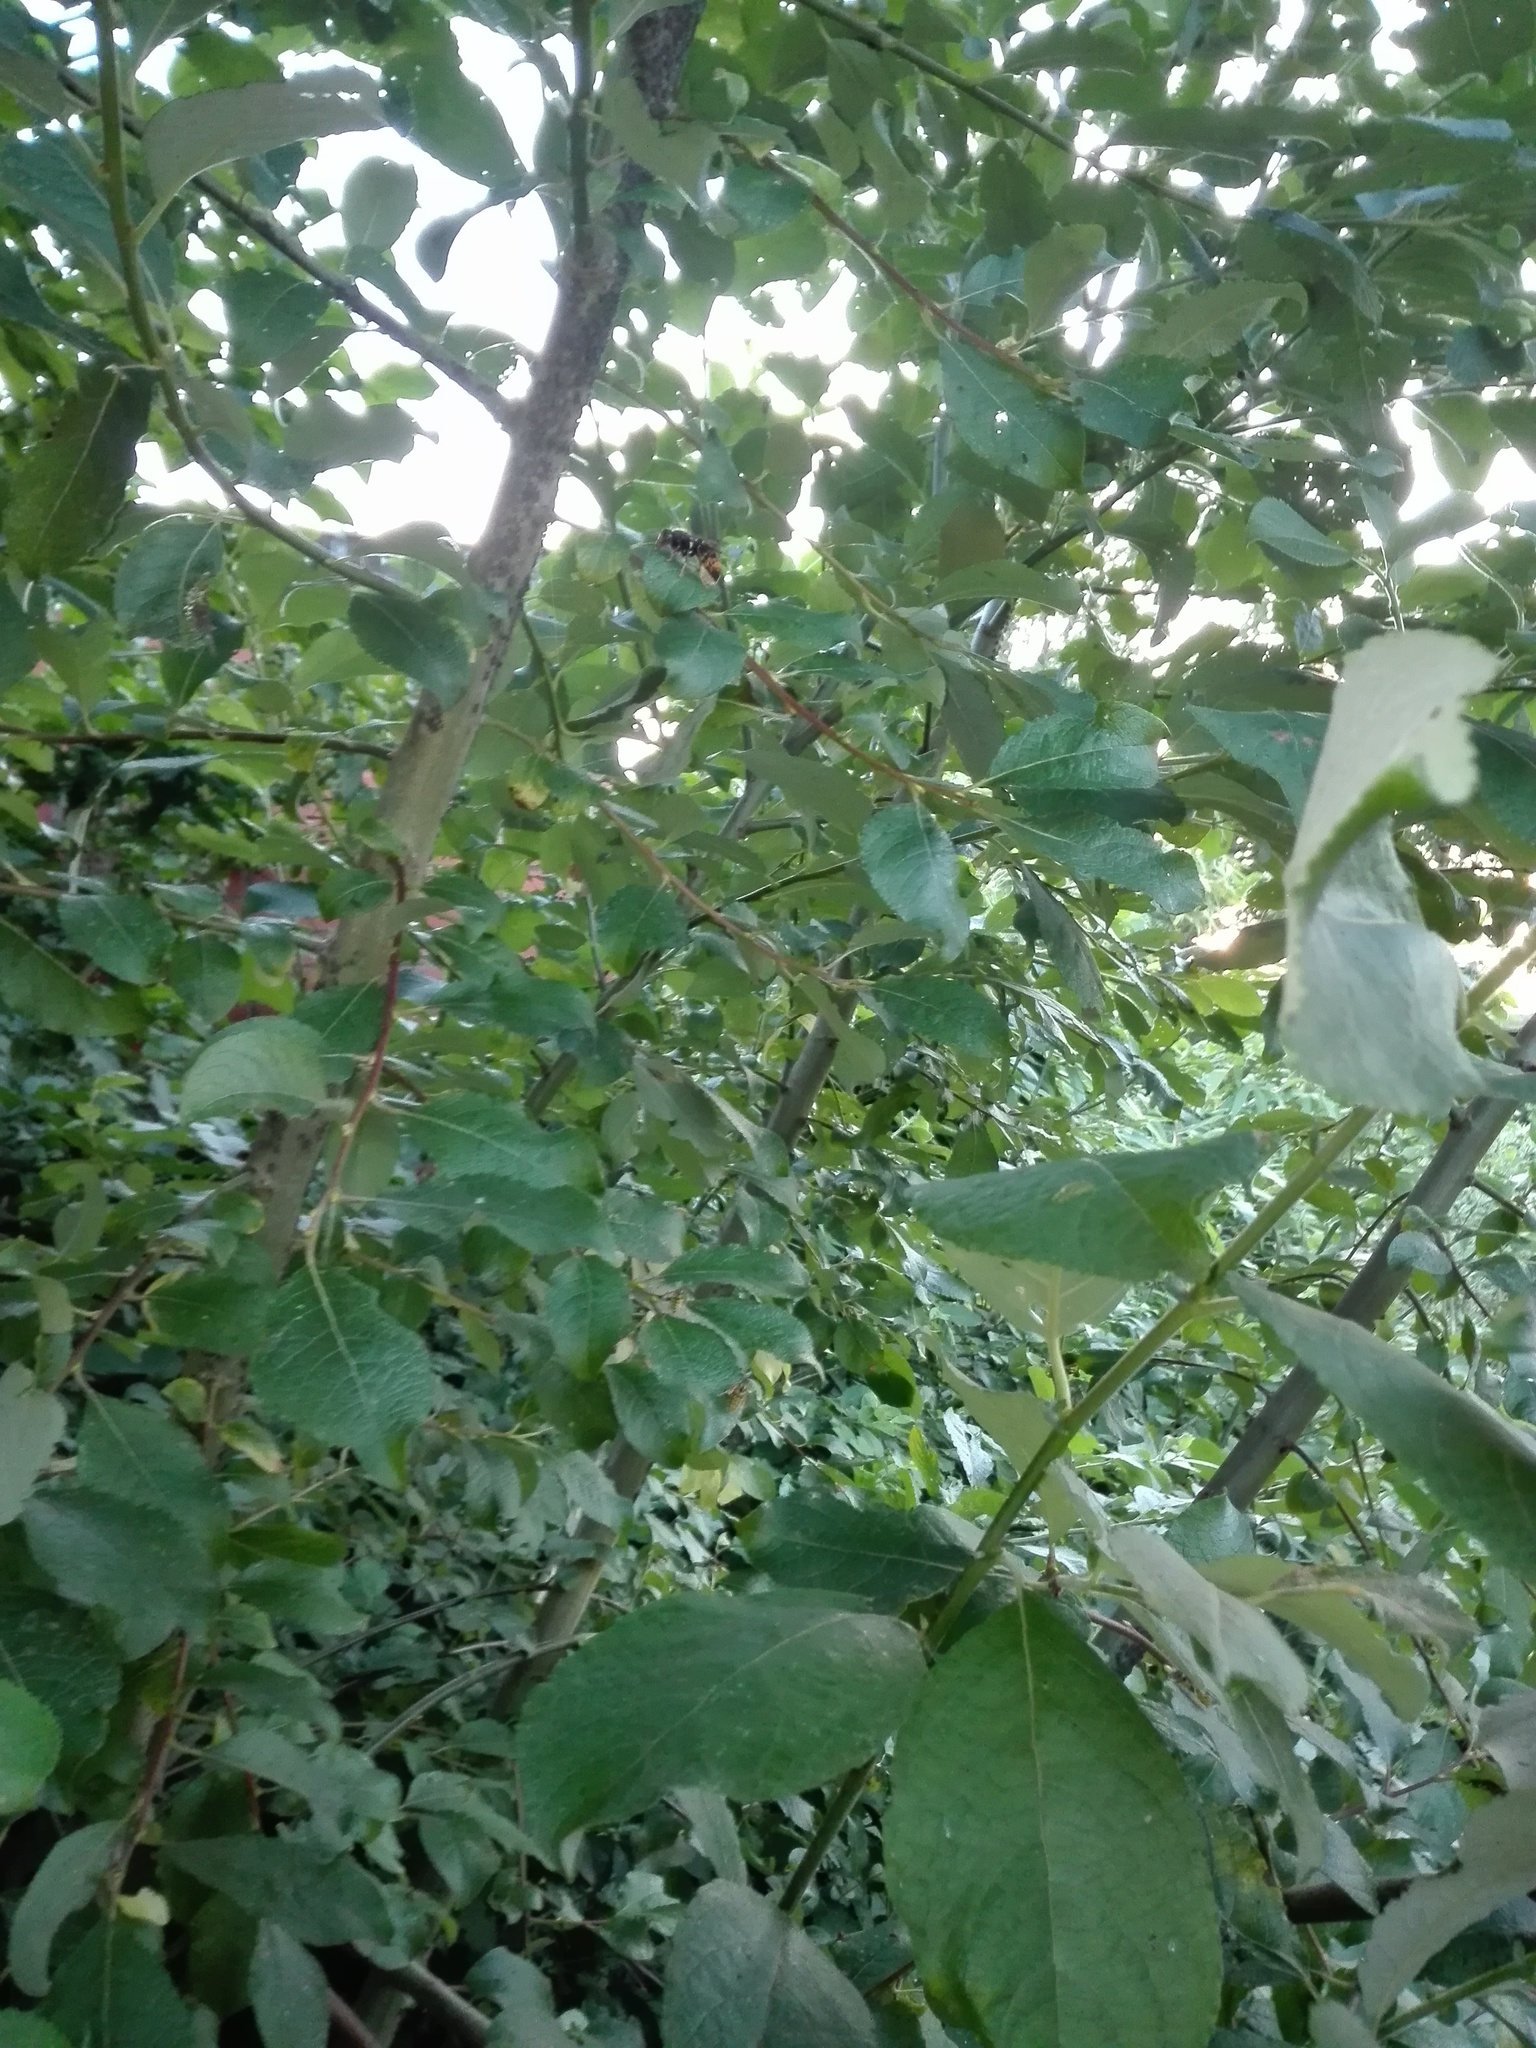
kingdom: Animalia
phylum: Arthropoda
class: Insecta
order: Hymenoptera
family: Vespidae
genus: Vespa
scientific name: Vespa velutina
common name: Asian hornet
